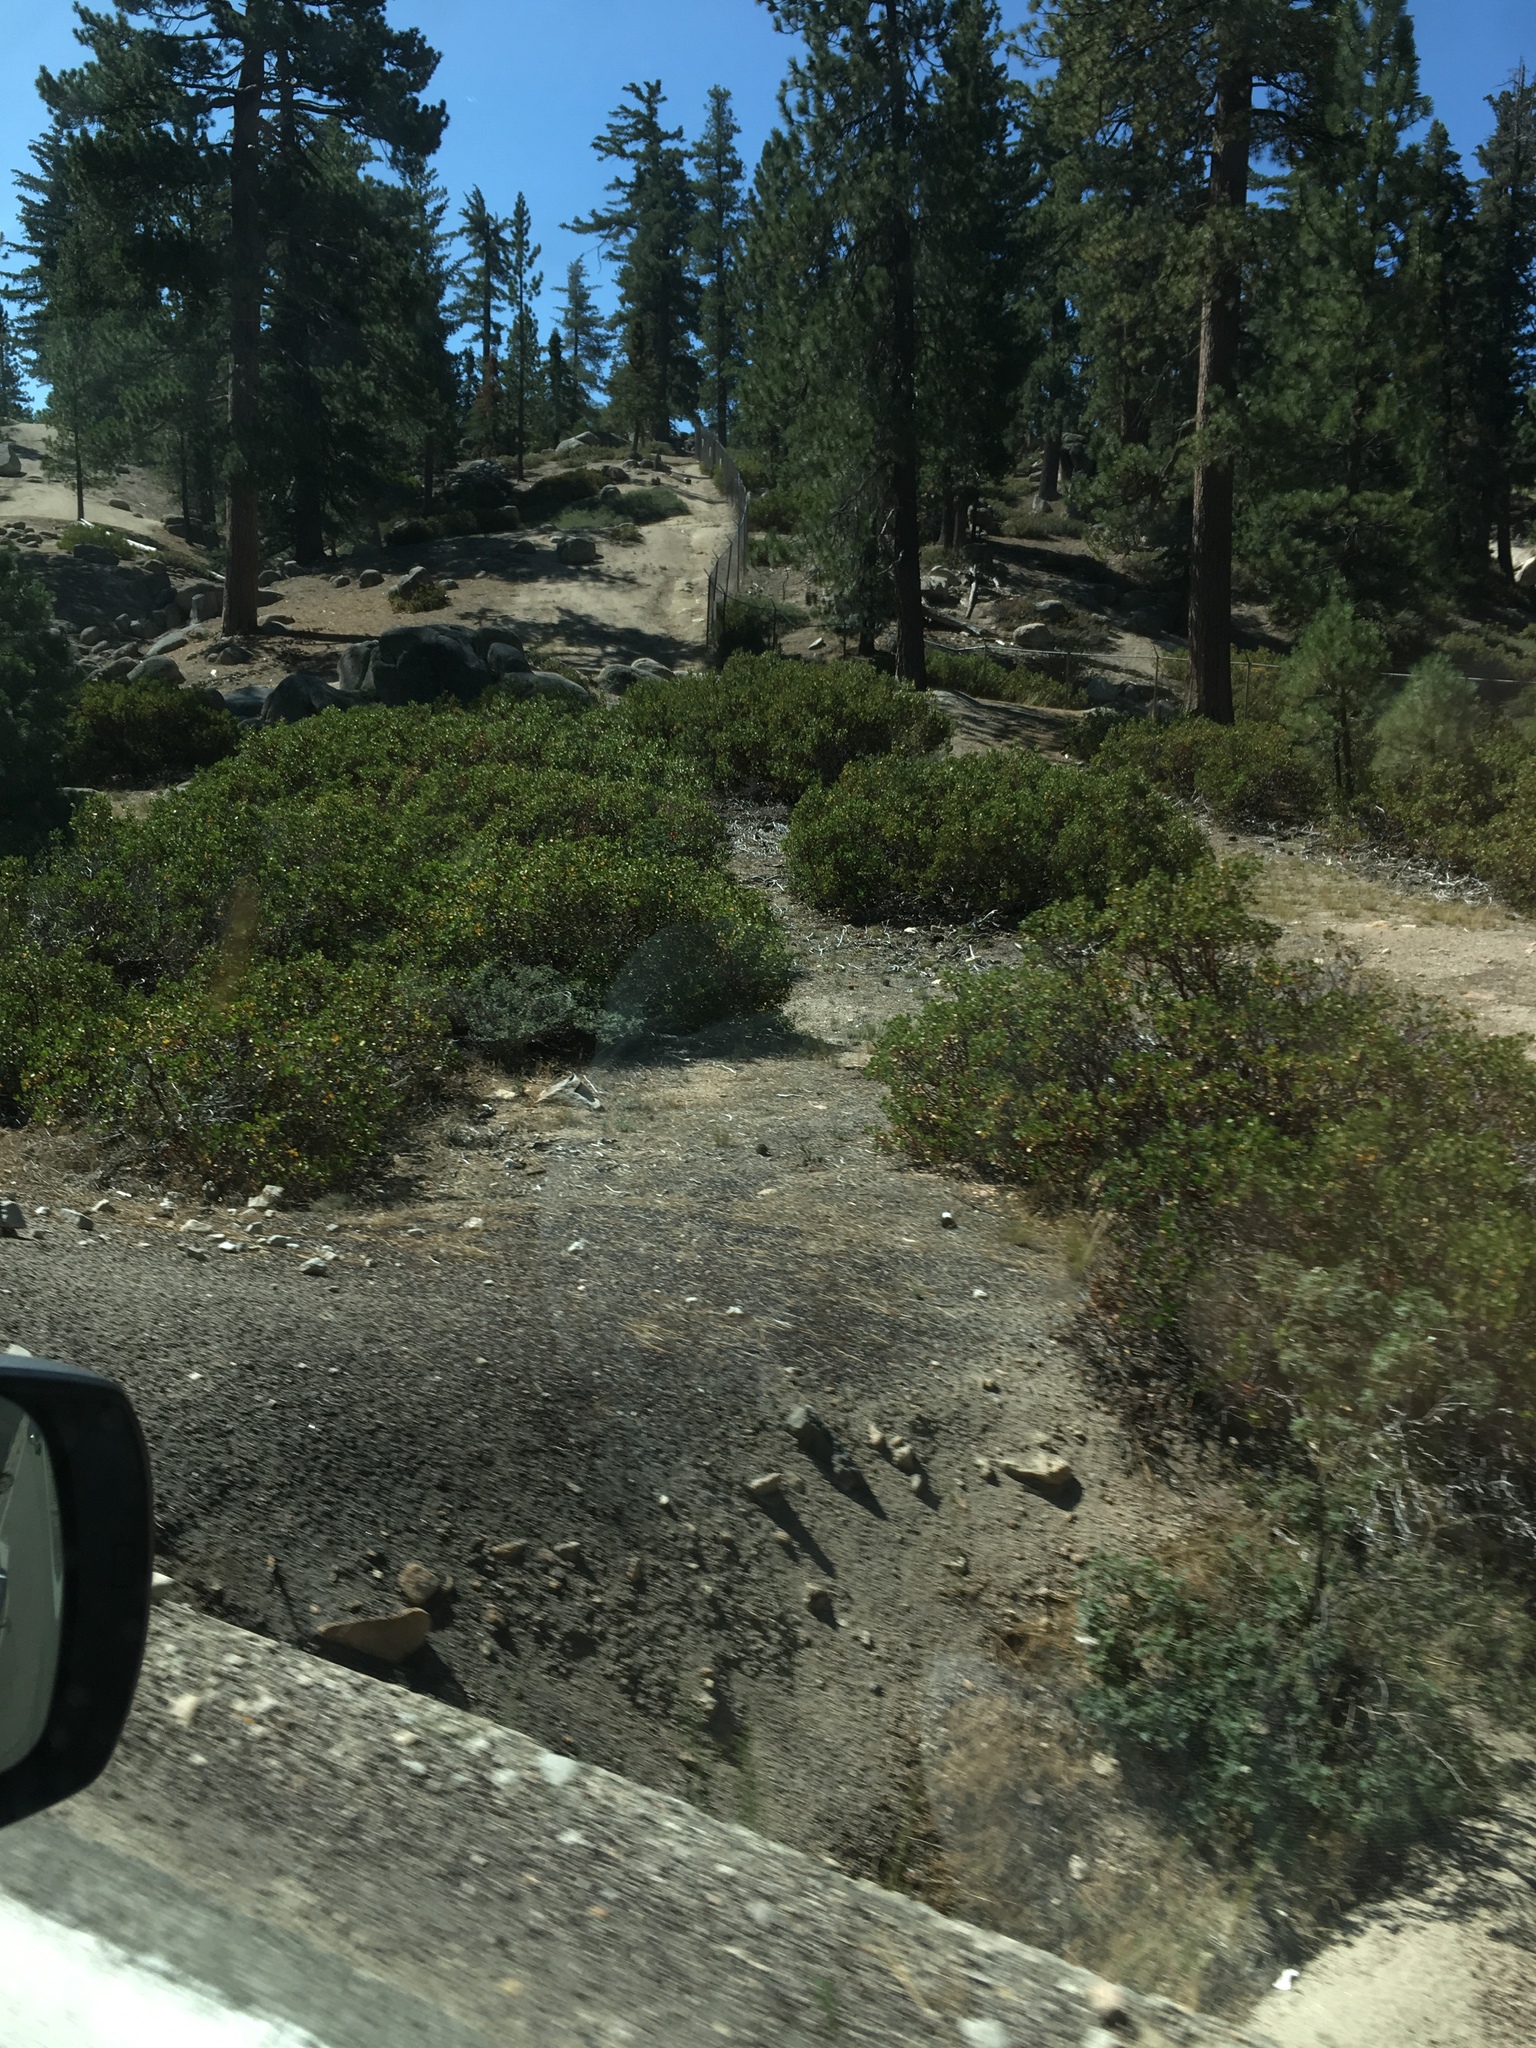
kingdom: Plantae
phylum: Tracheophyta
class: Magnoliopsida
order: Ericales
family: Ericaceae
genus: Arctostaphylos
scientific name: Arctostaphylos patula
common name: Green-leaf manzanita
